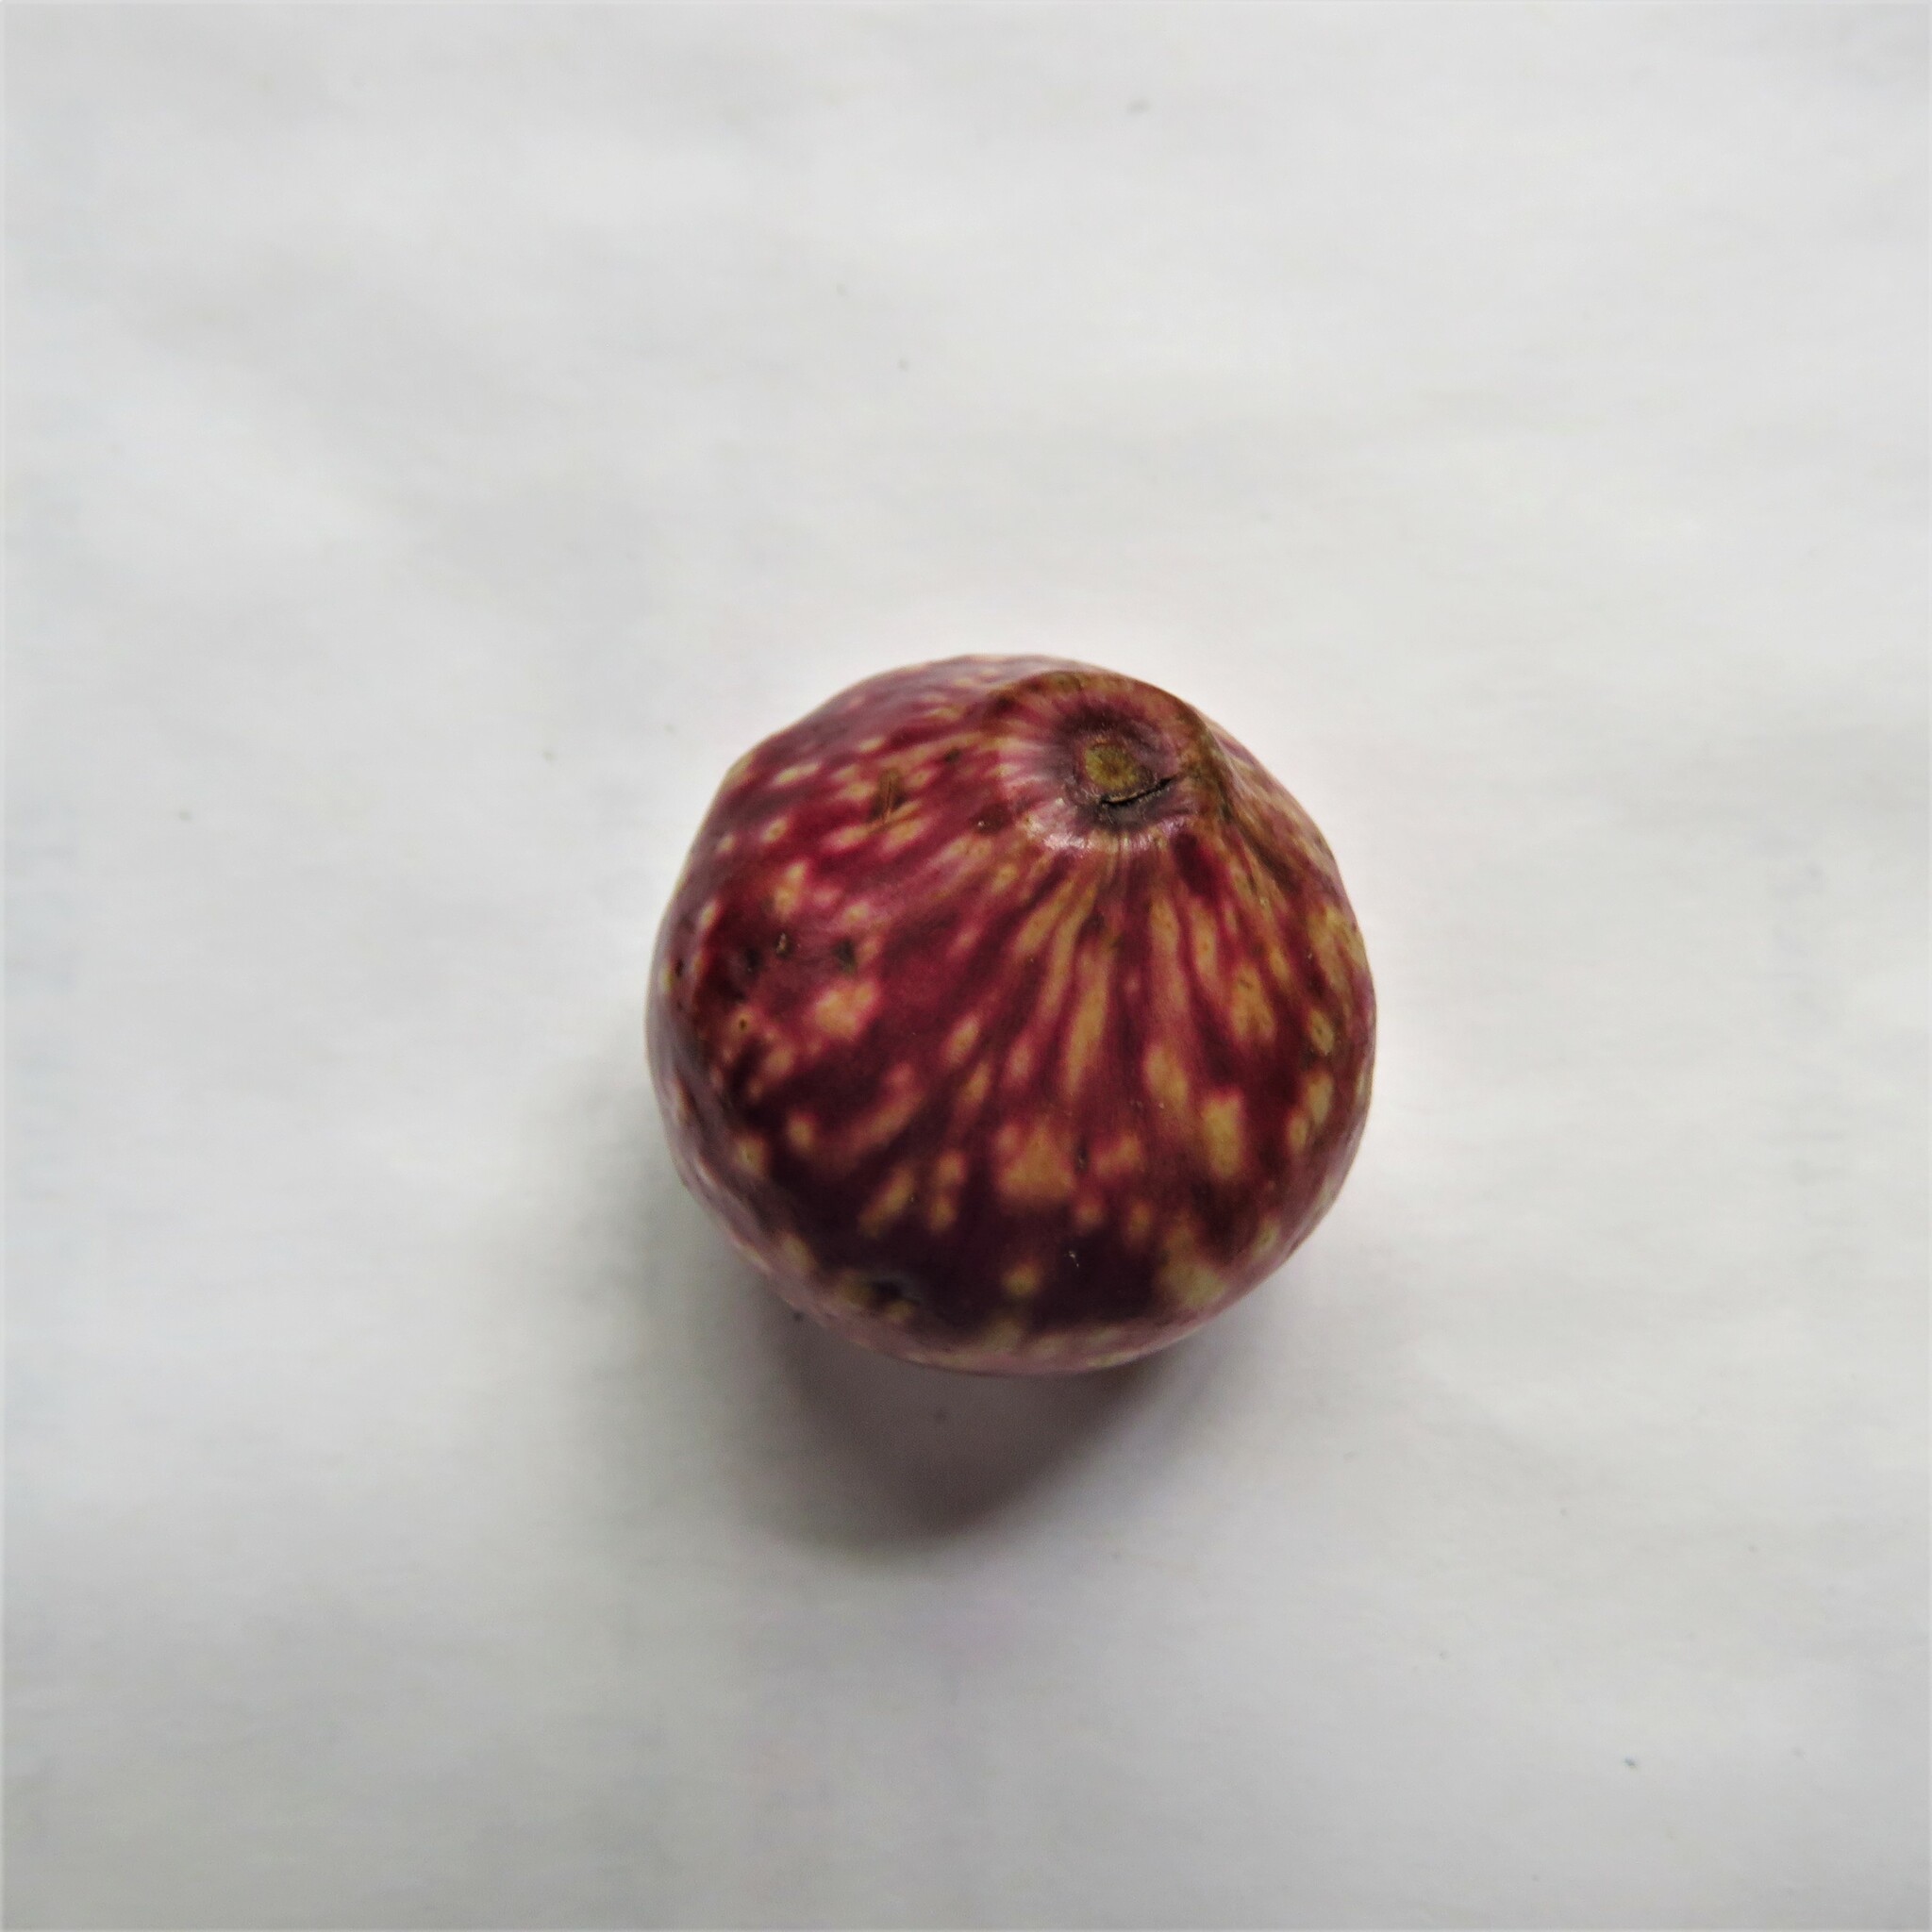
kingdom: Animalia
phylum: Arthropoda
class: Insecta
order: Hymenoptera
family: Cynipidae
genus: Amphibolips
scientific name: Amphibolips
